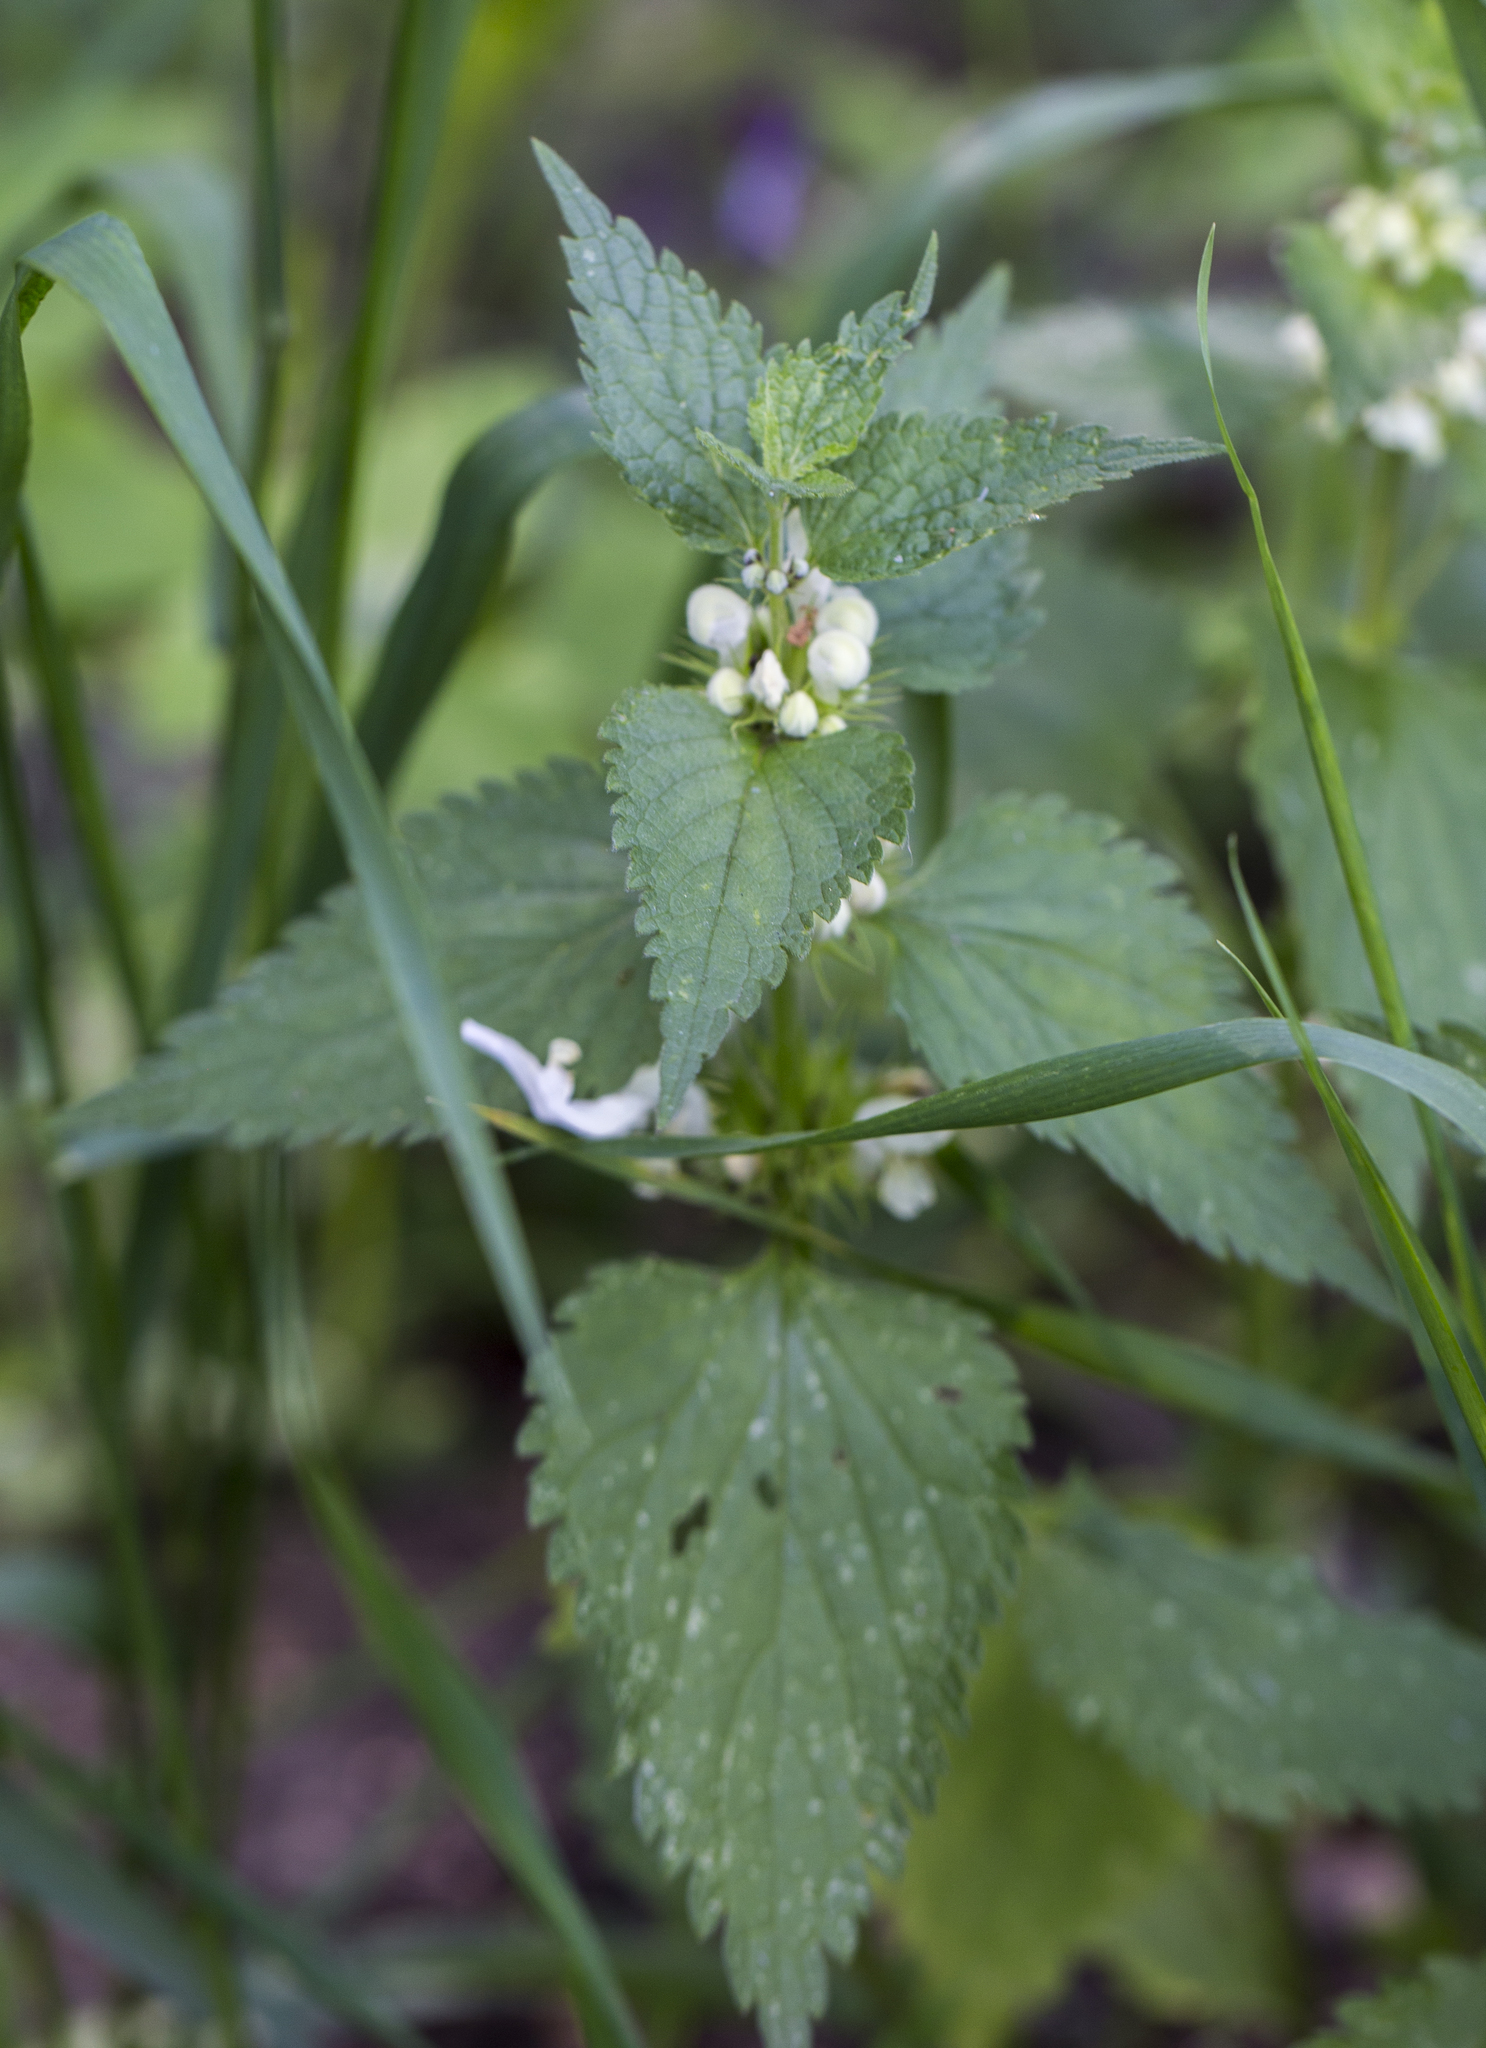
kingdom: Plantae
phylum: Tracheophyta
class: Magnoliopsida
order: Lamiales
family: Lamiaceae
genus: Lamium
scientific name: Lamium album
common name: White dead-nettle
